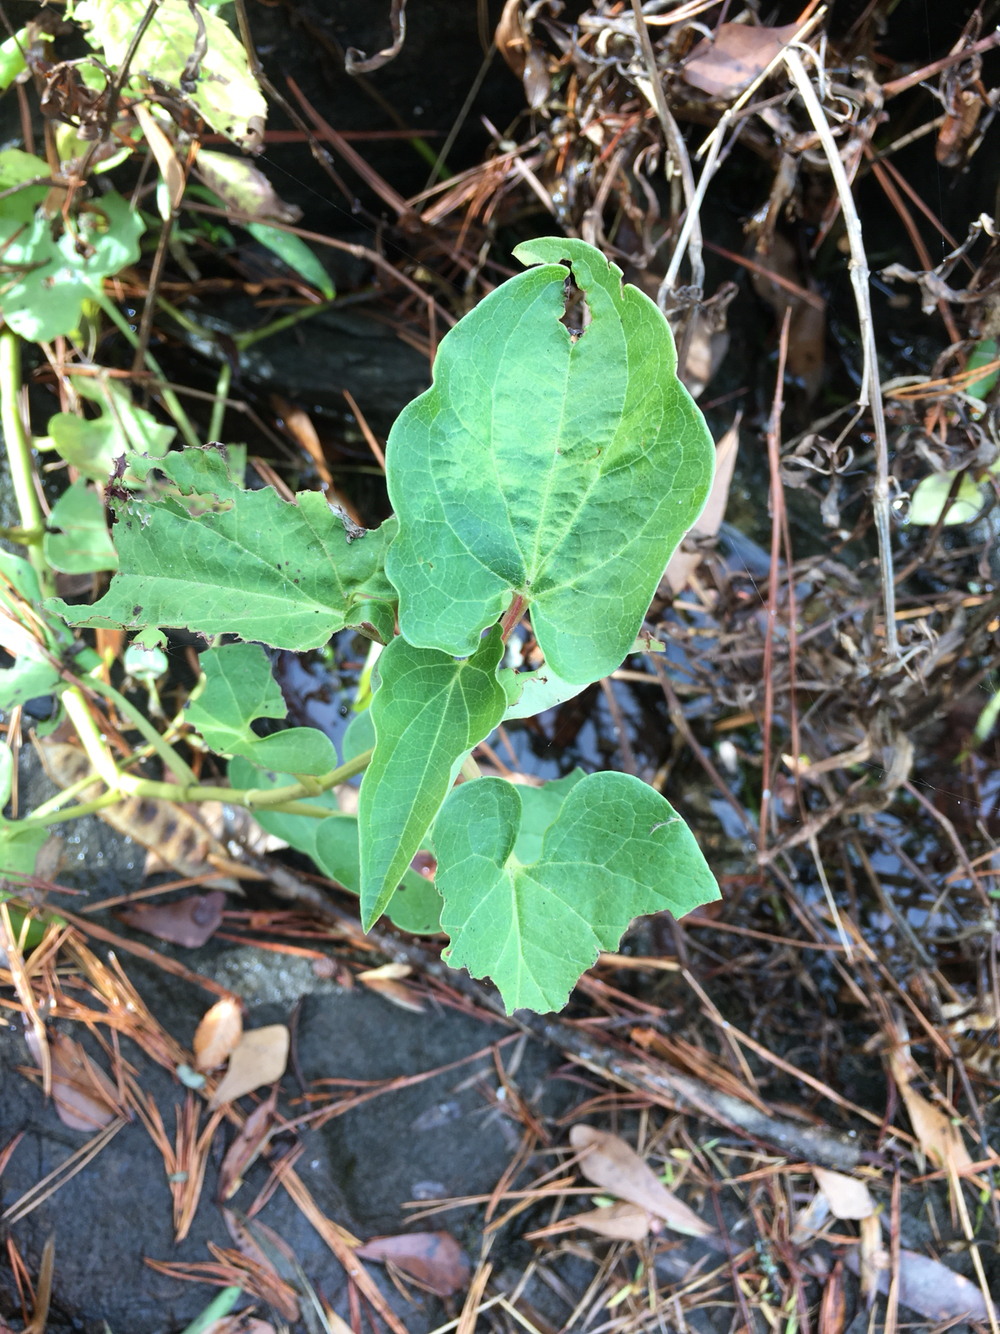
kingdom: Plantae
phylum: Tracheophyta
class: Magnoliopsida
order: Piperales
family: Saururaceae
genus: Saururus
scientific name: Saururus cernuus
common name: Lizard's-tail
